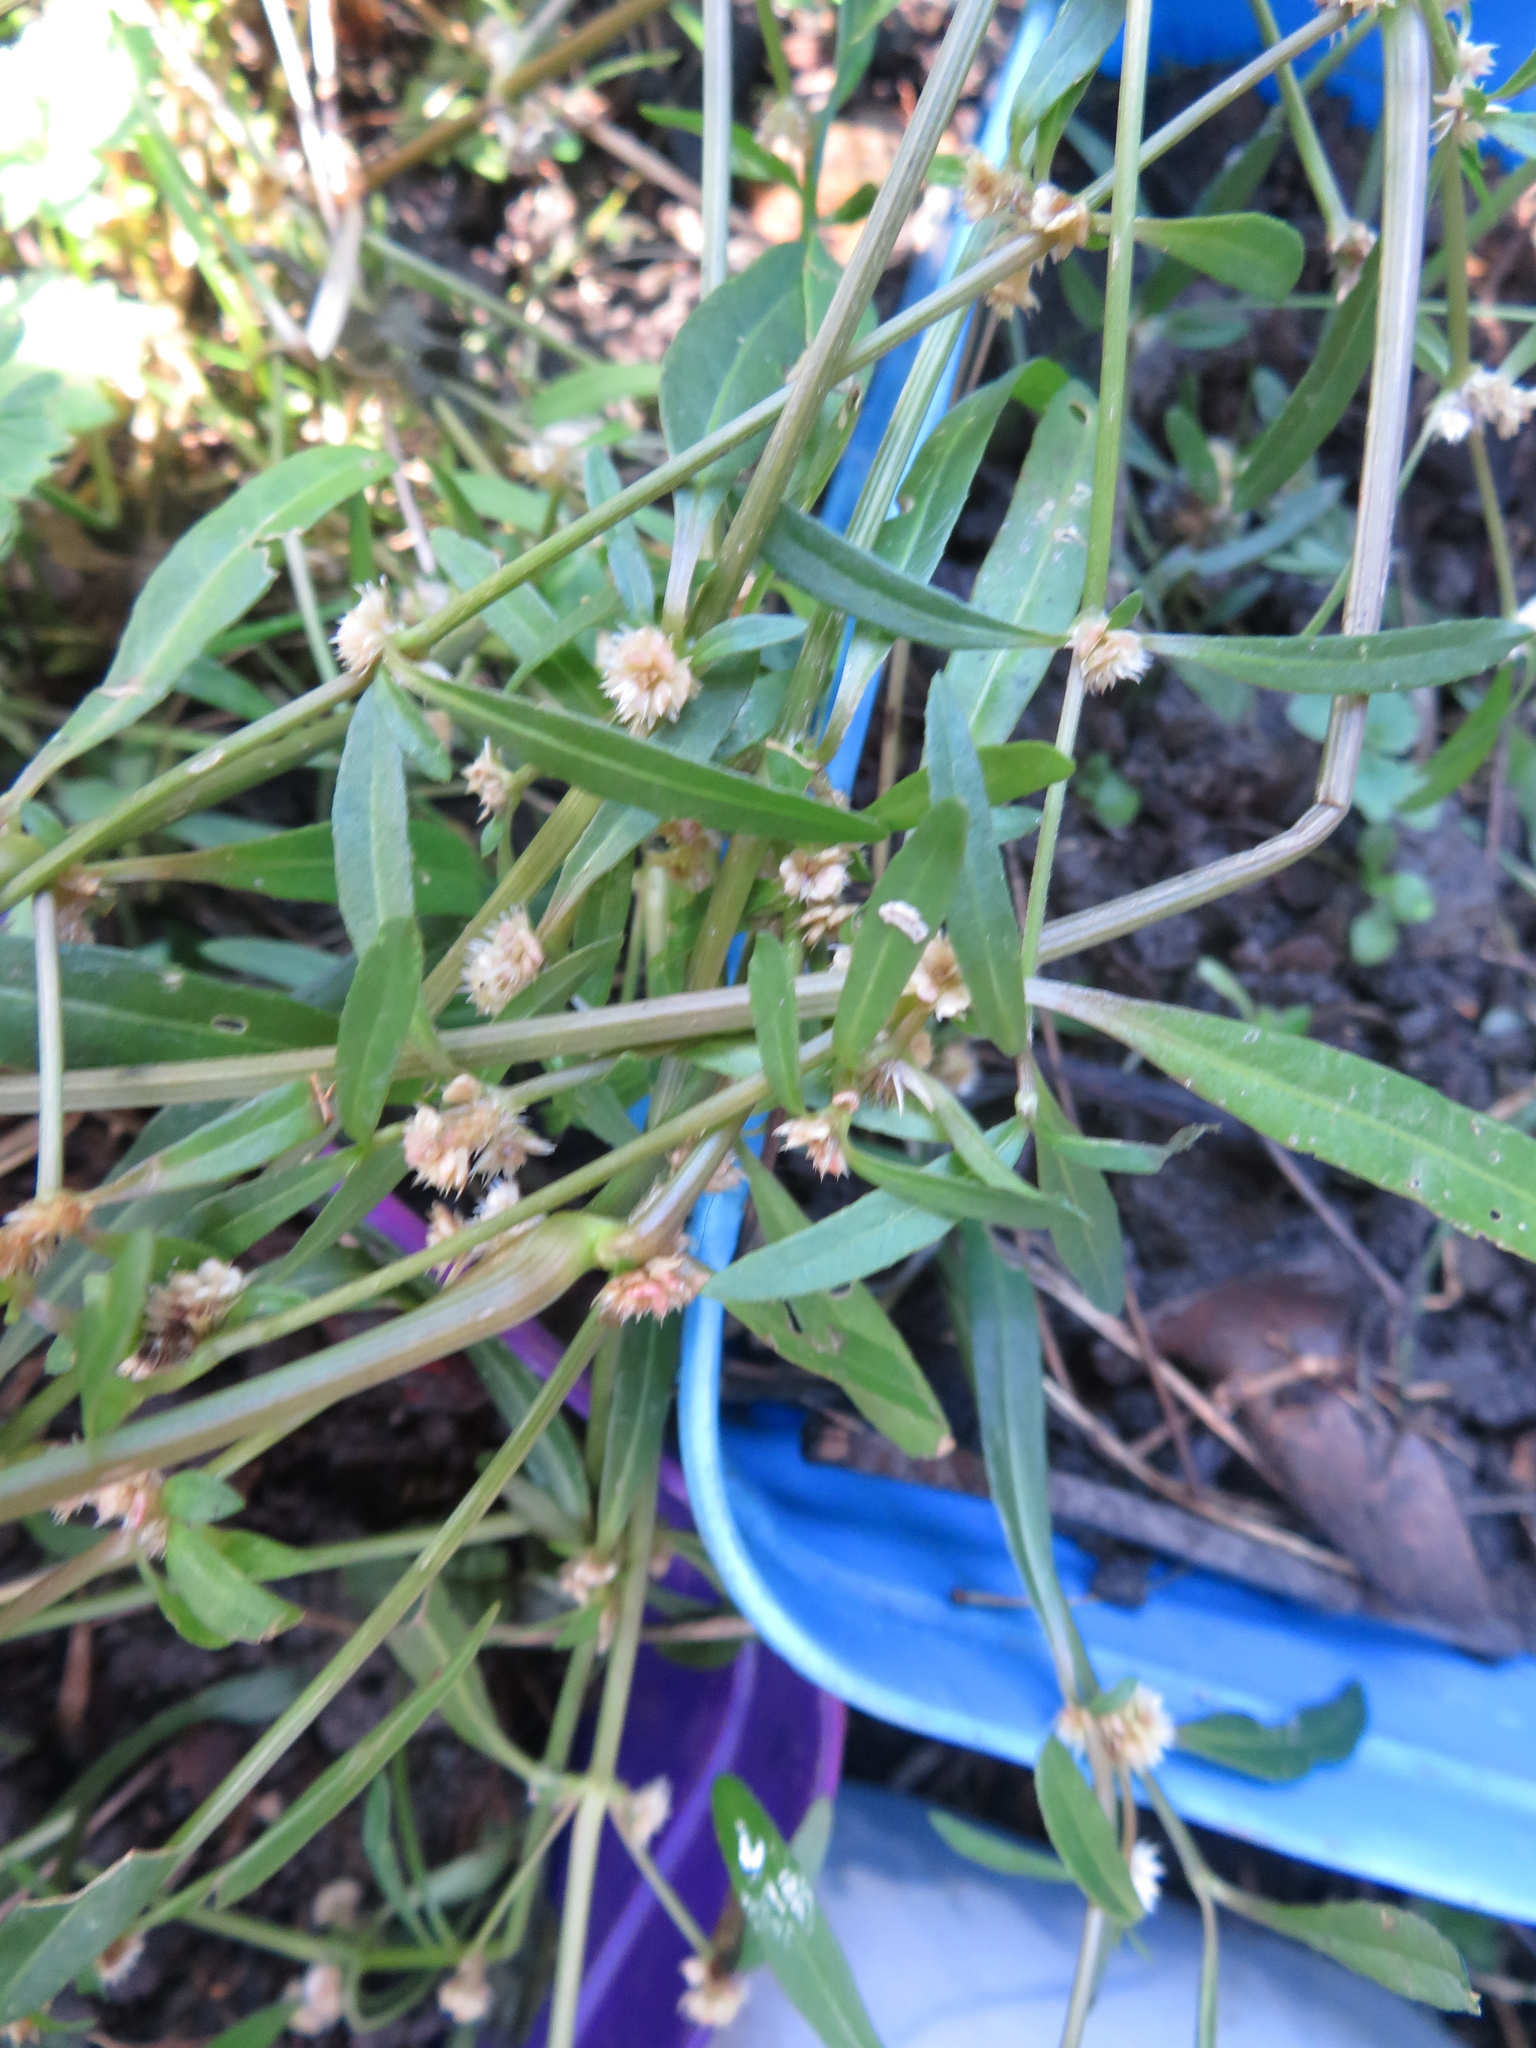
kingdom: Plantae
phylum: Tracheophyta
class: Magnoliopsida
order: Caryophyllales
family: Amaranthaceae
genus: Alternanthera
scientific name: Alternanthera nahui
